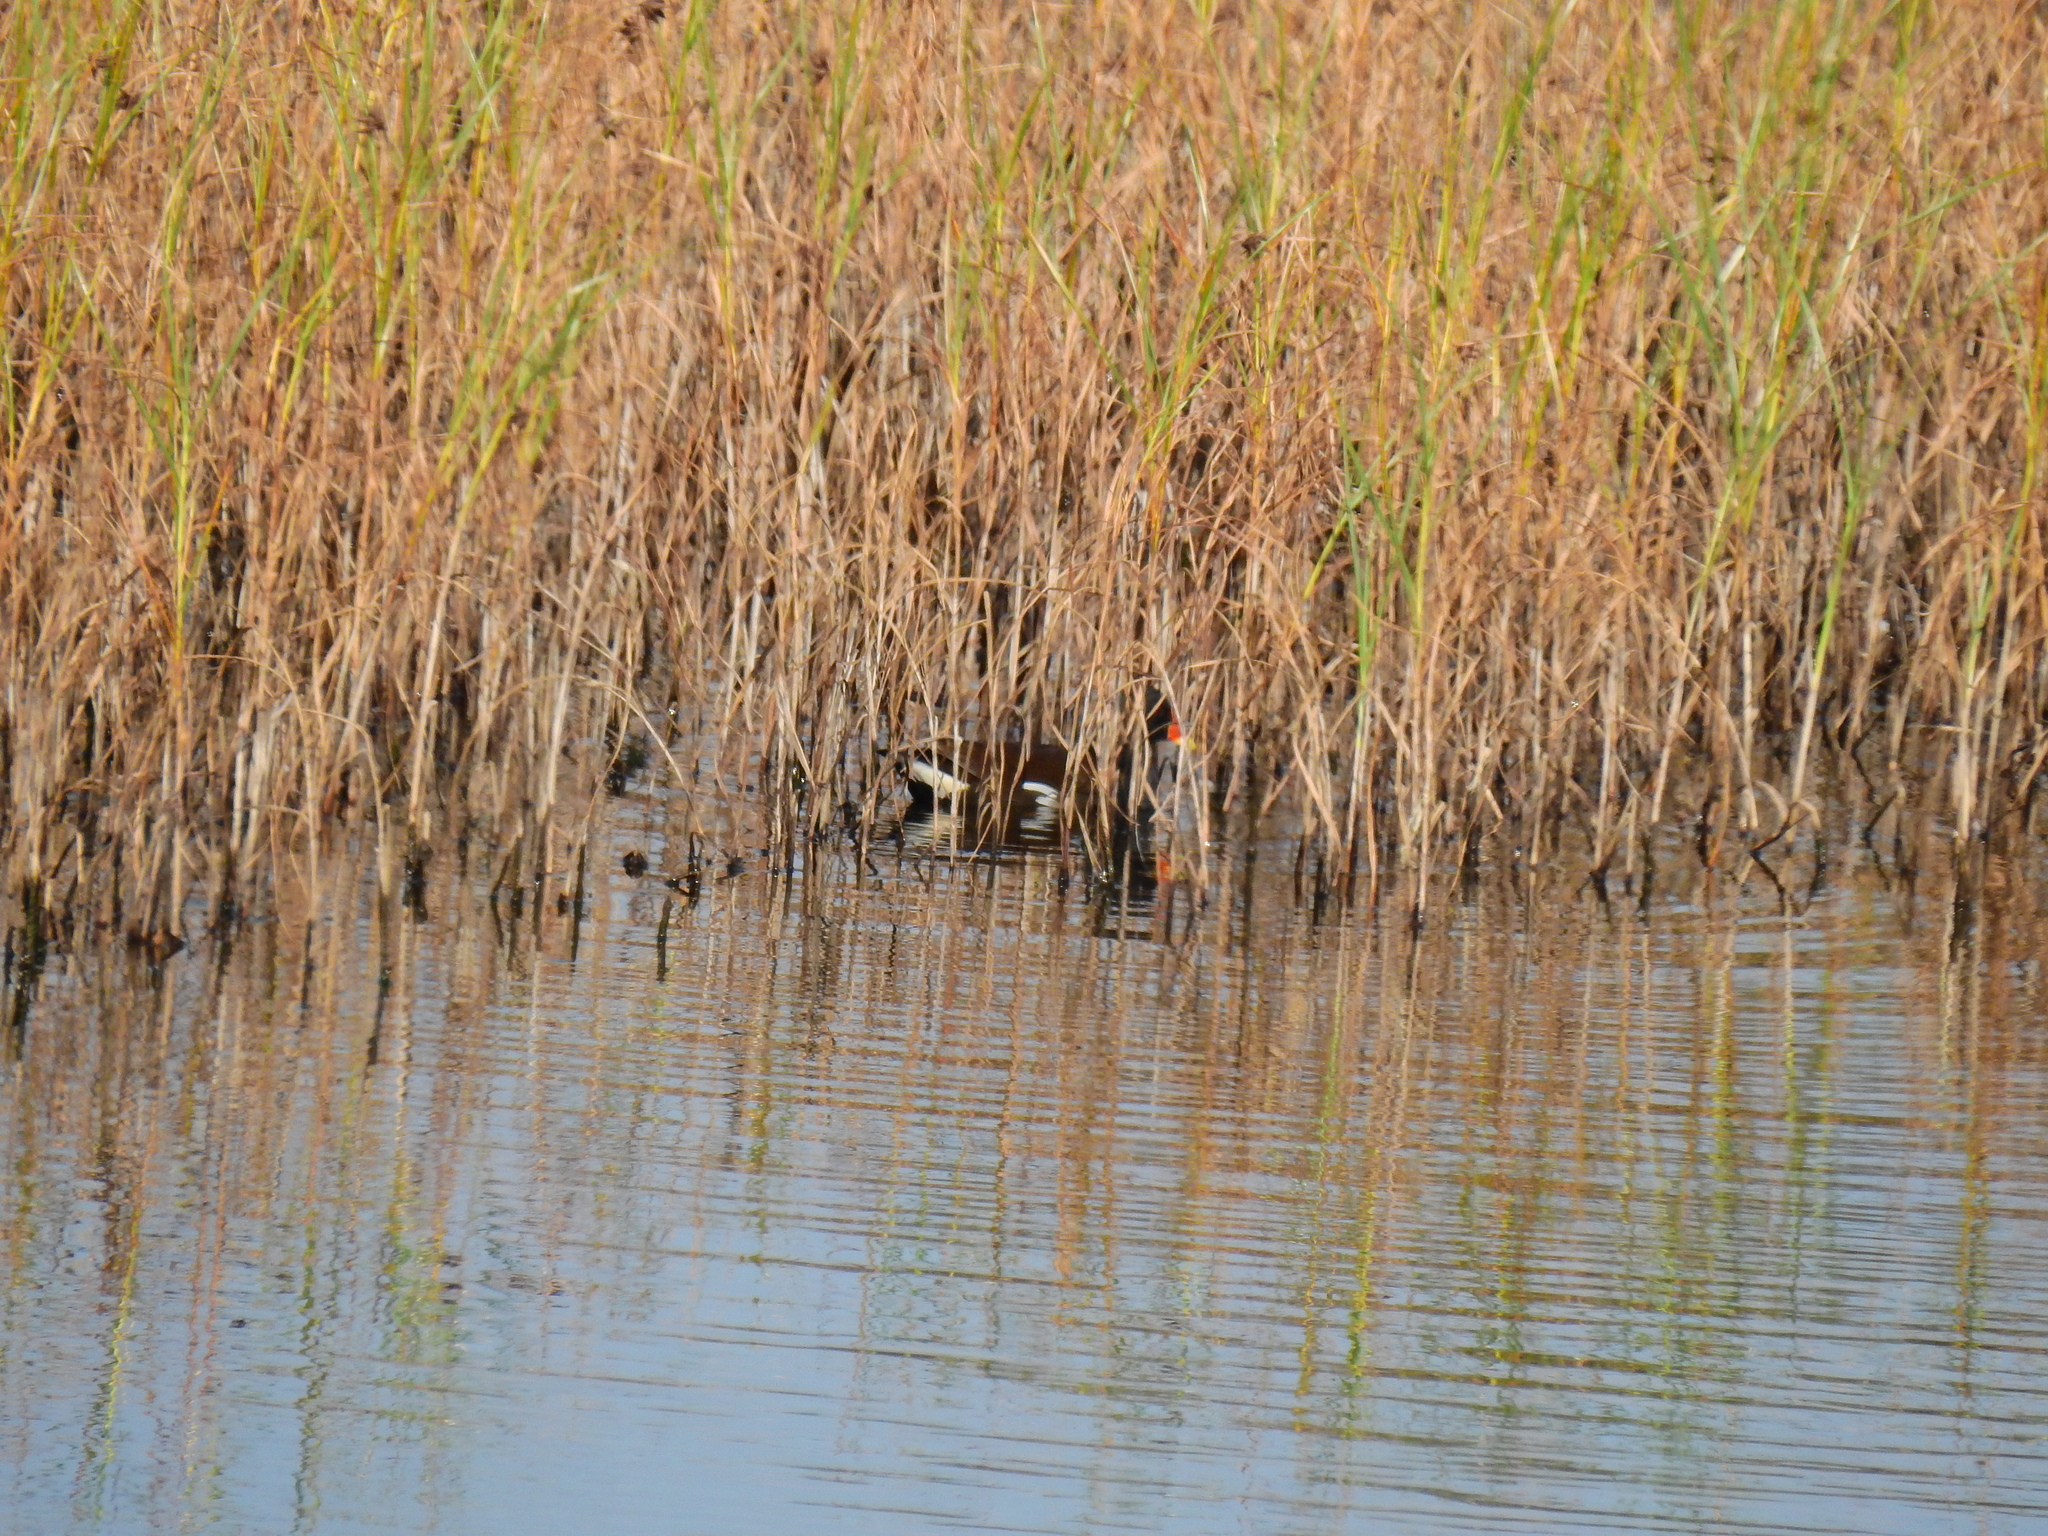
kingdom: Animalia
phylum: Chordata
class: Aves
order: Gruiformes
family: Rallidae
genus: Gallinula
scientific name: Gallinula chloropus
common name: Common moorhen
